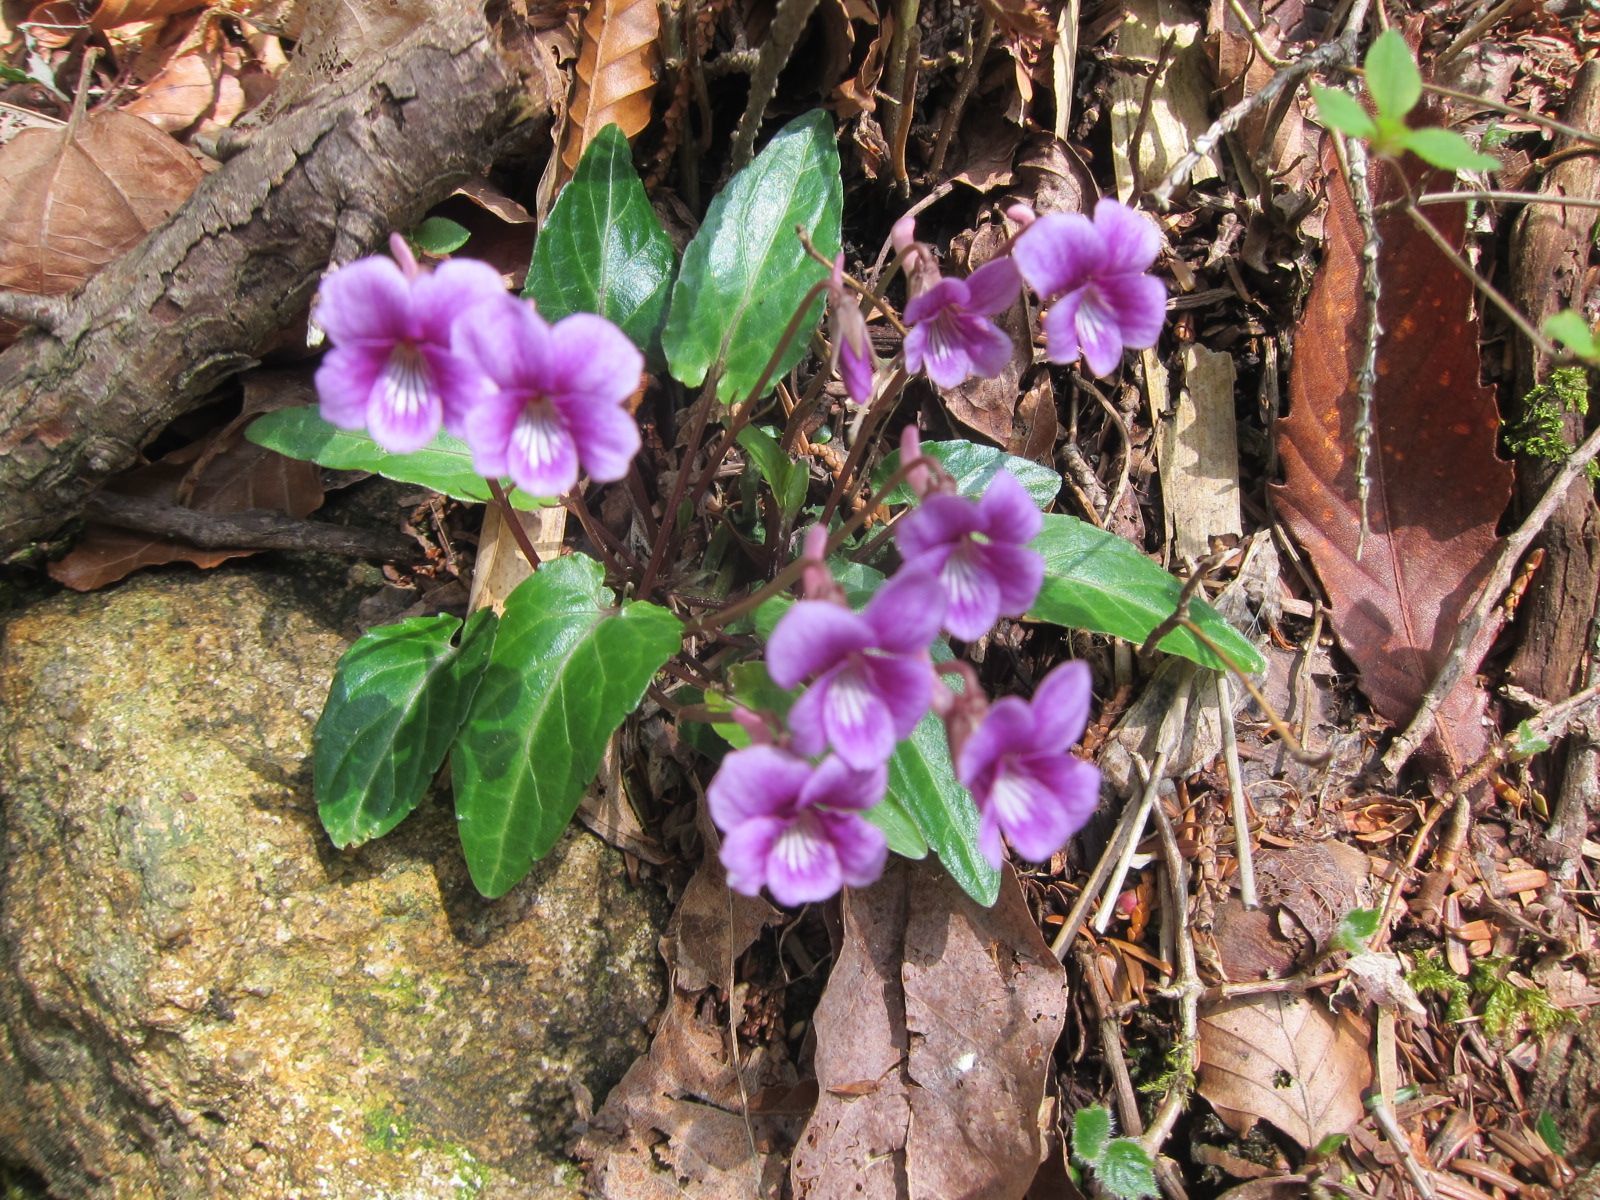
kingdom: Plantae
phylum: Tracheophyta
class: Magnoliopsida
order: Malpighiales
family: Violaceae
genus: Viola
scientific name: Viola violacea
